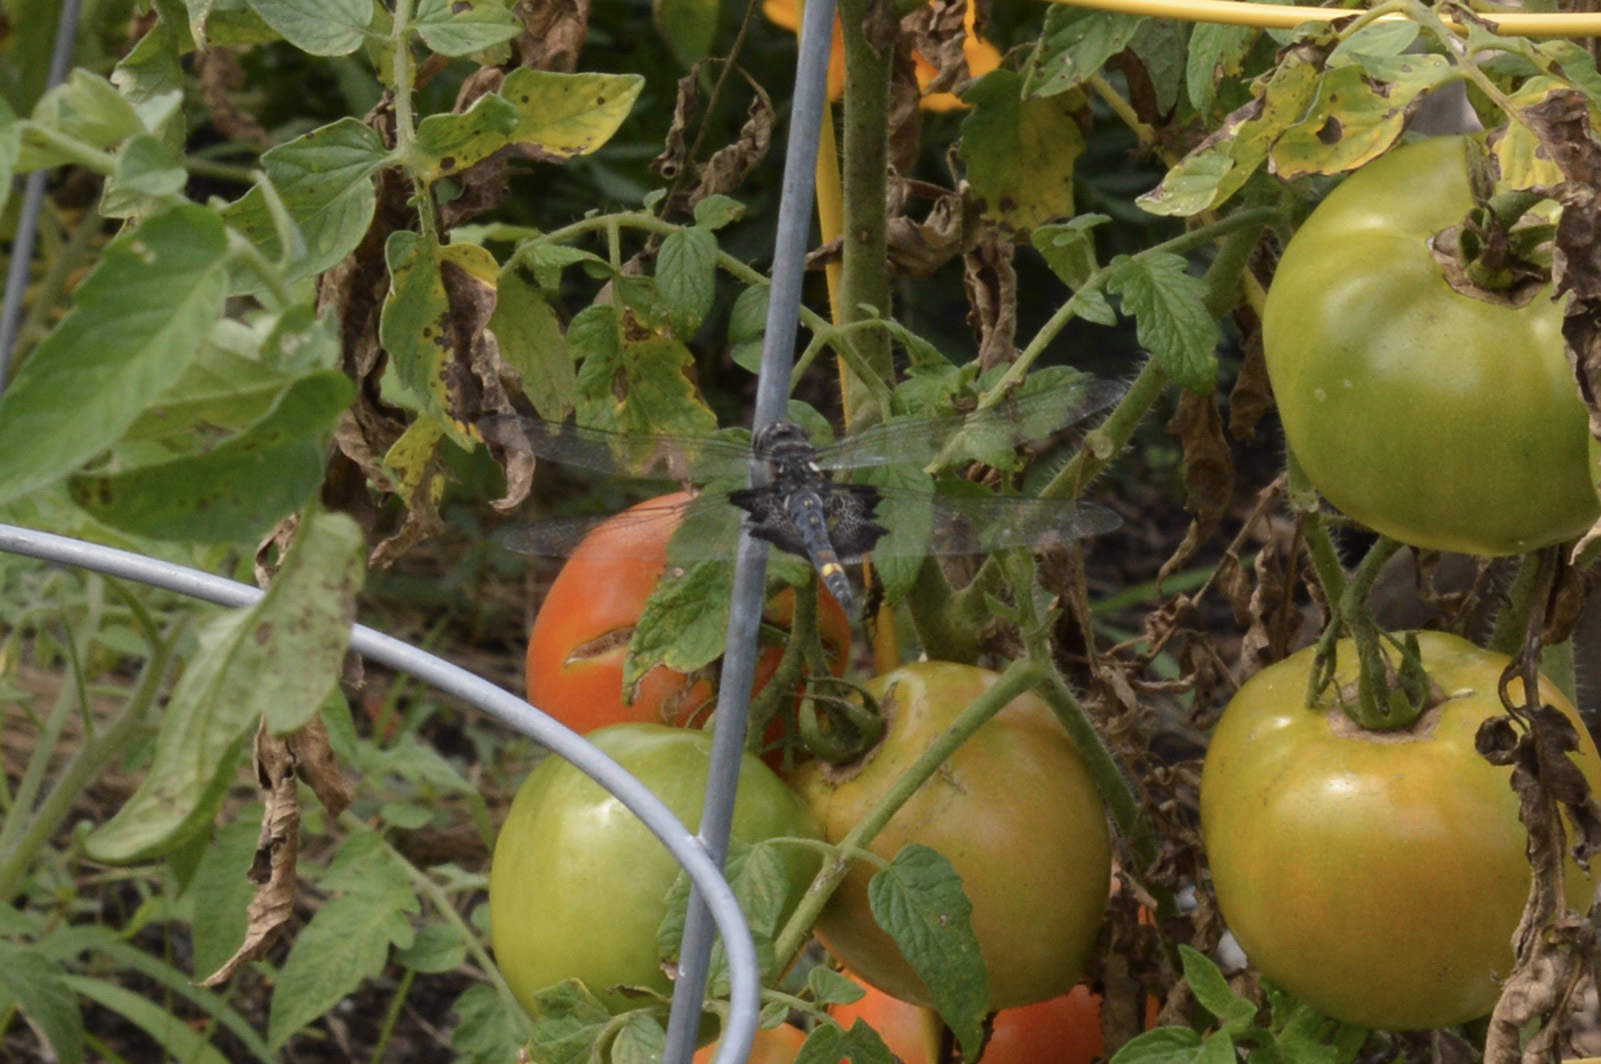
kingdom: Animalia
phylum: Arthropoda
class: Insecta
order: Odonata
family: Libellulidae
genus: Tramea
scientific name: Tramea lacerata
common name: Black saddlebags
